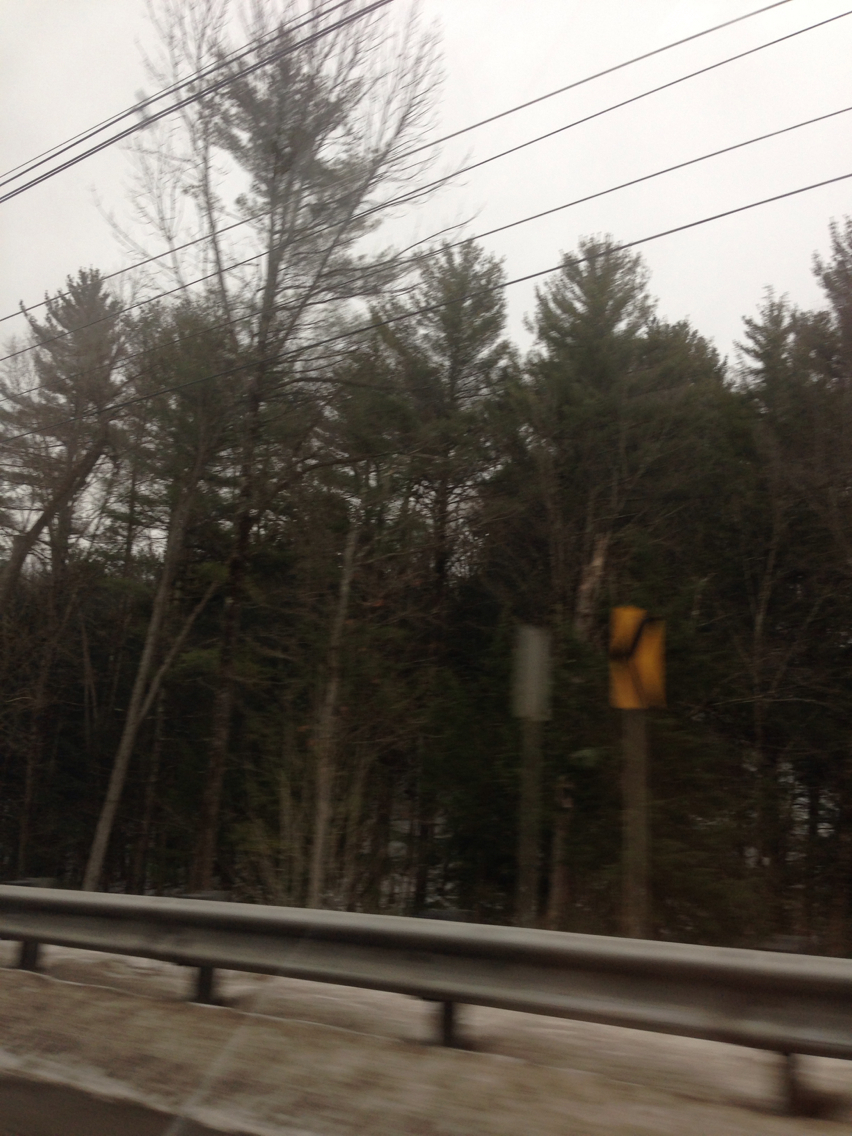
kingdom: Plantae
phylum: Tracheophyta
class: Pinopsida
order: Pinales
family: Pinaceae
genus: Pinus
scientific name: Pinus strobus
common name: Weymouth pine
